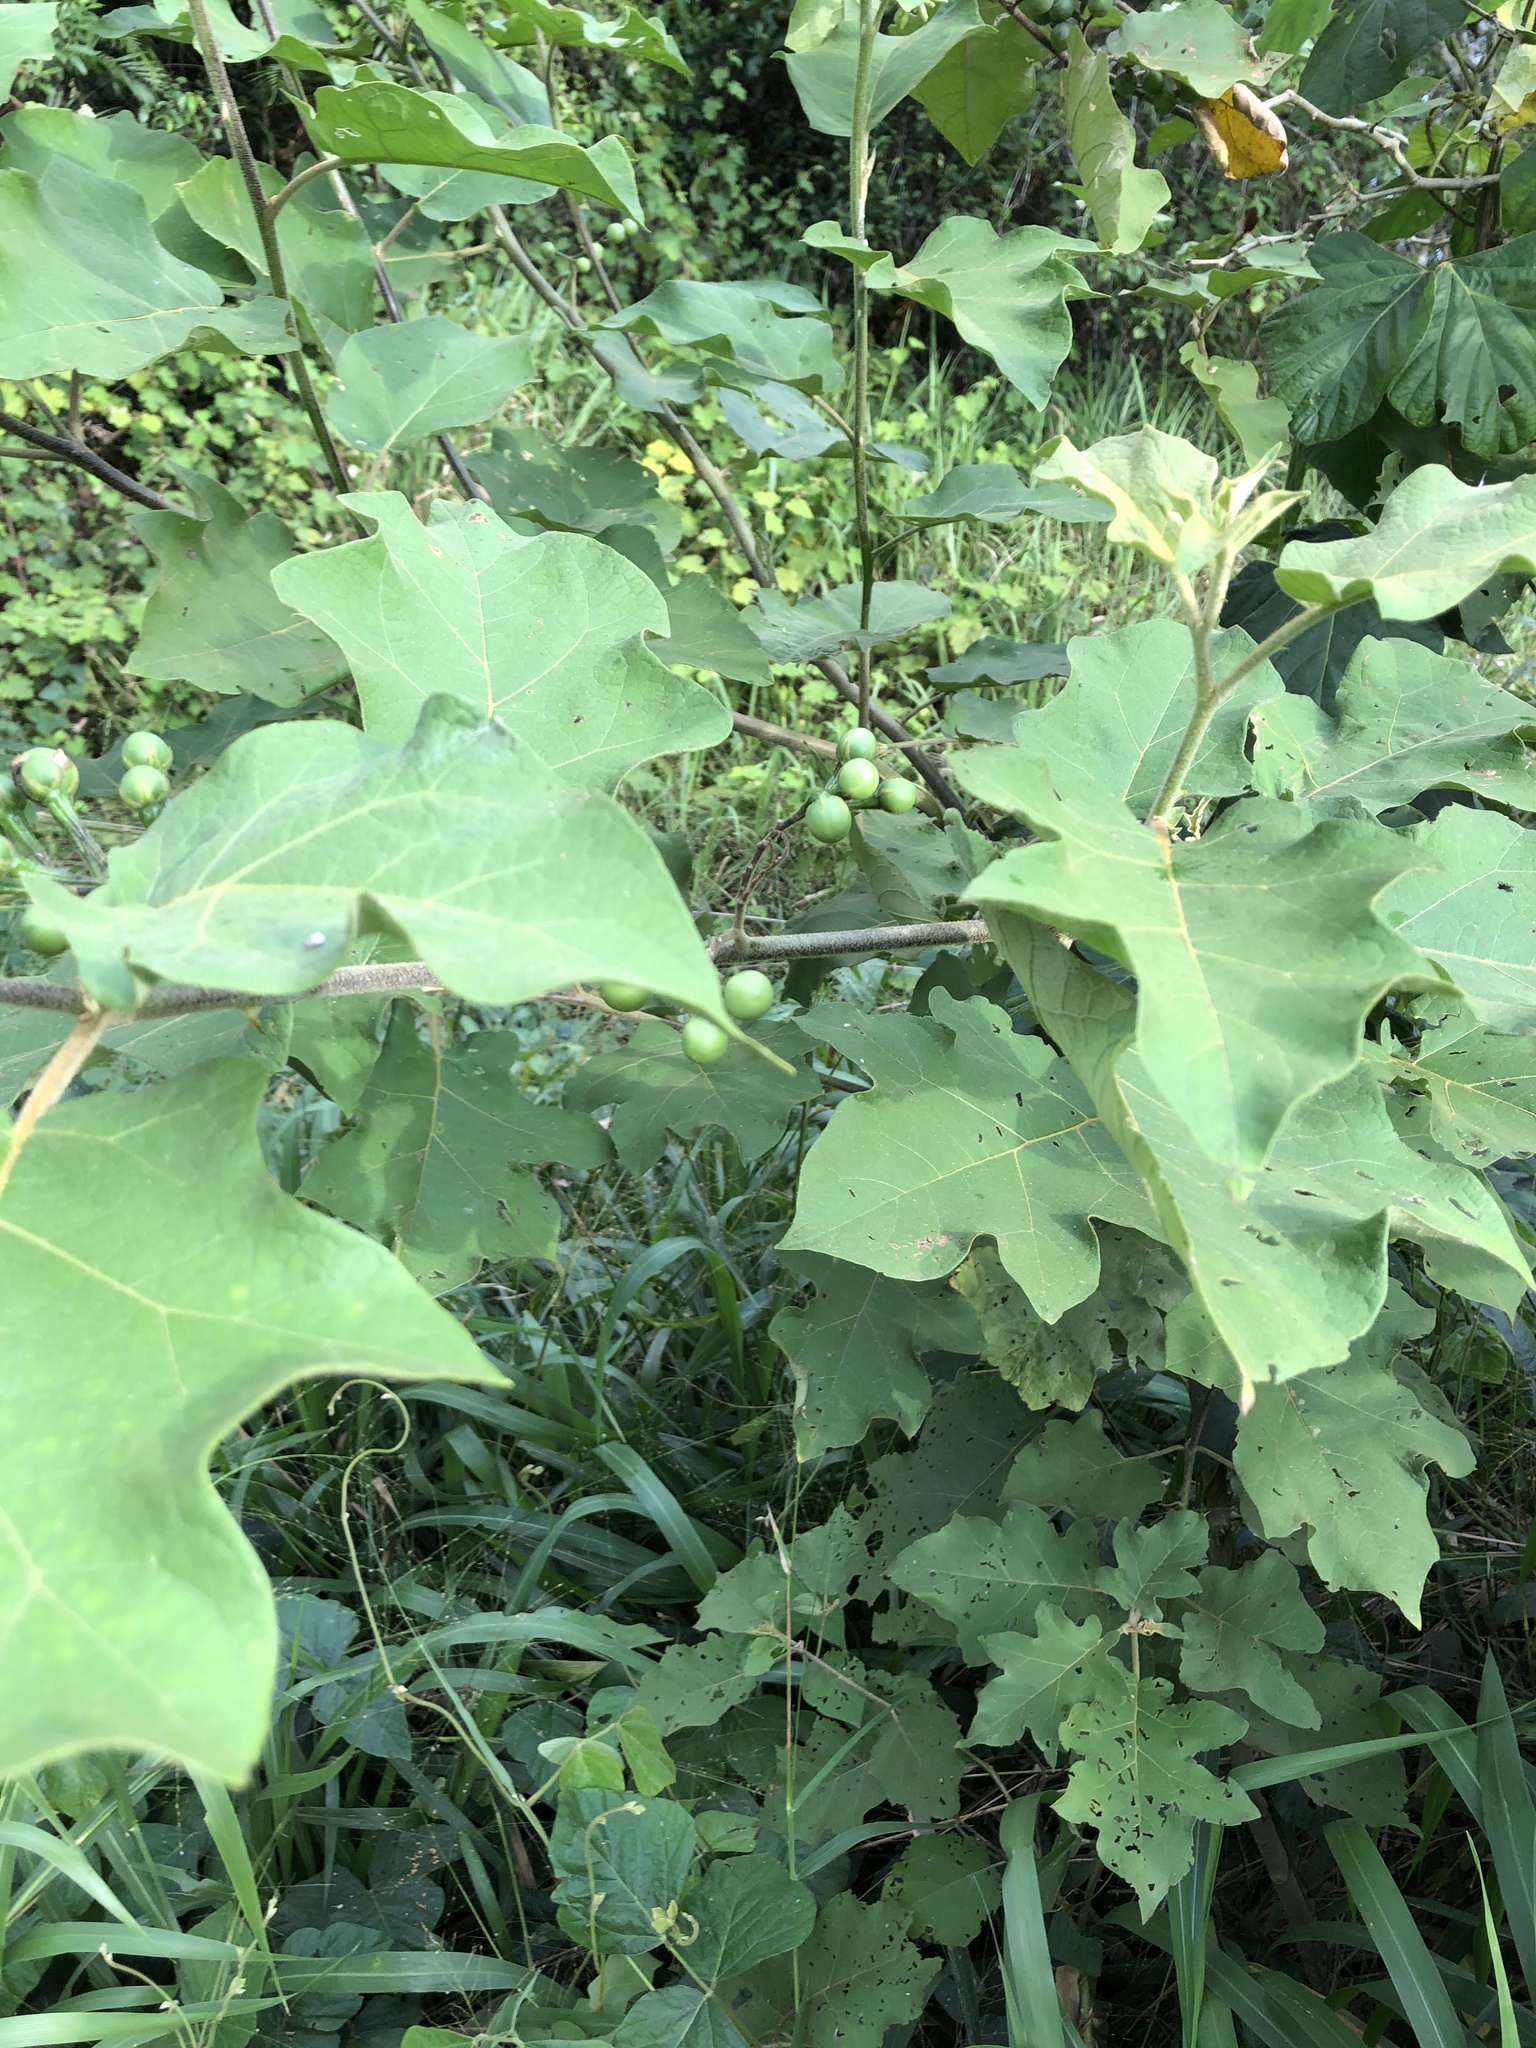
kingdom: Plantae
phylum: Tracheophyta
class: Magnoliopsida
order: Solanales
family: Solanaceae
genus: Solanum
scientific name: Solanum torvum
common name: Turkey berry
